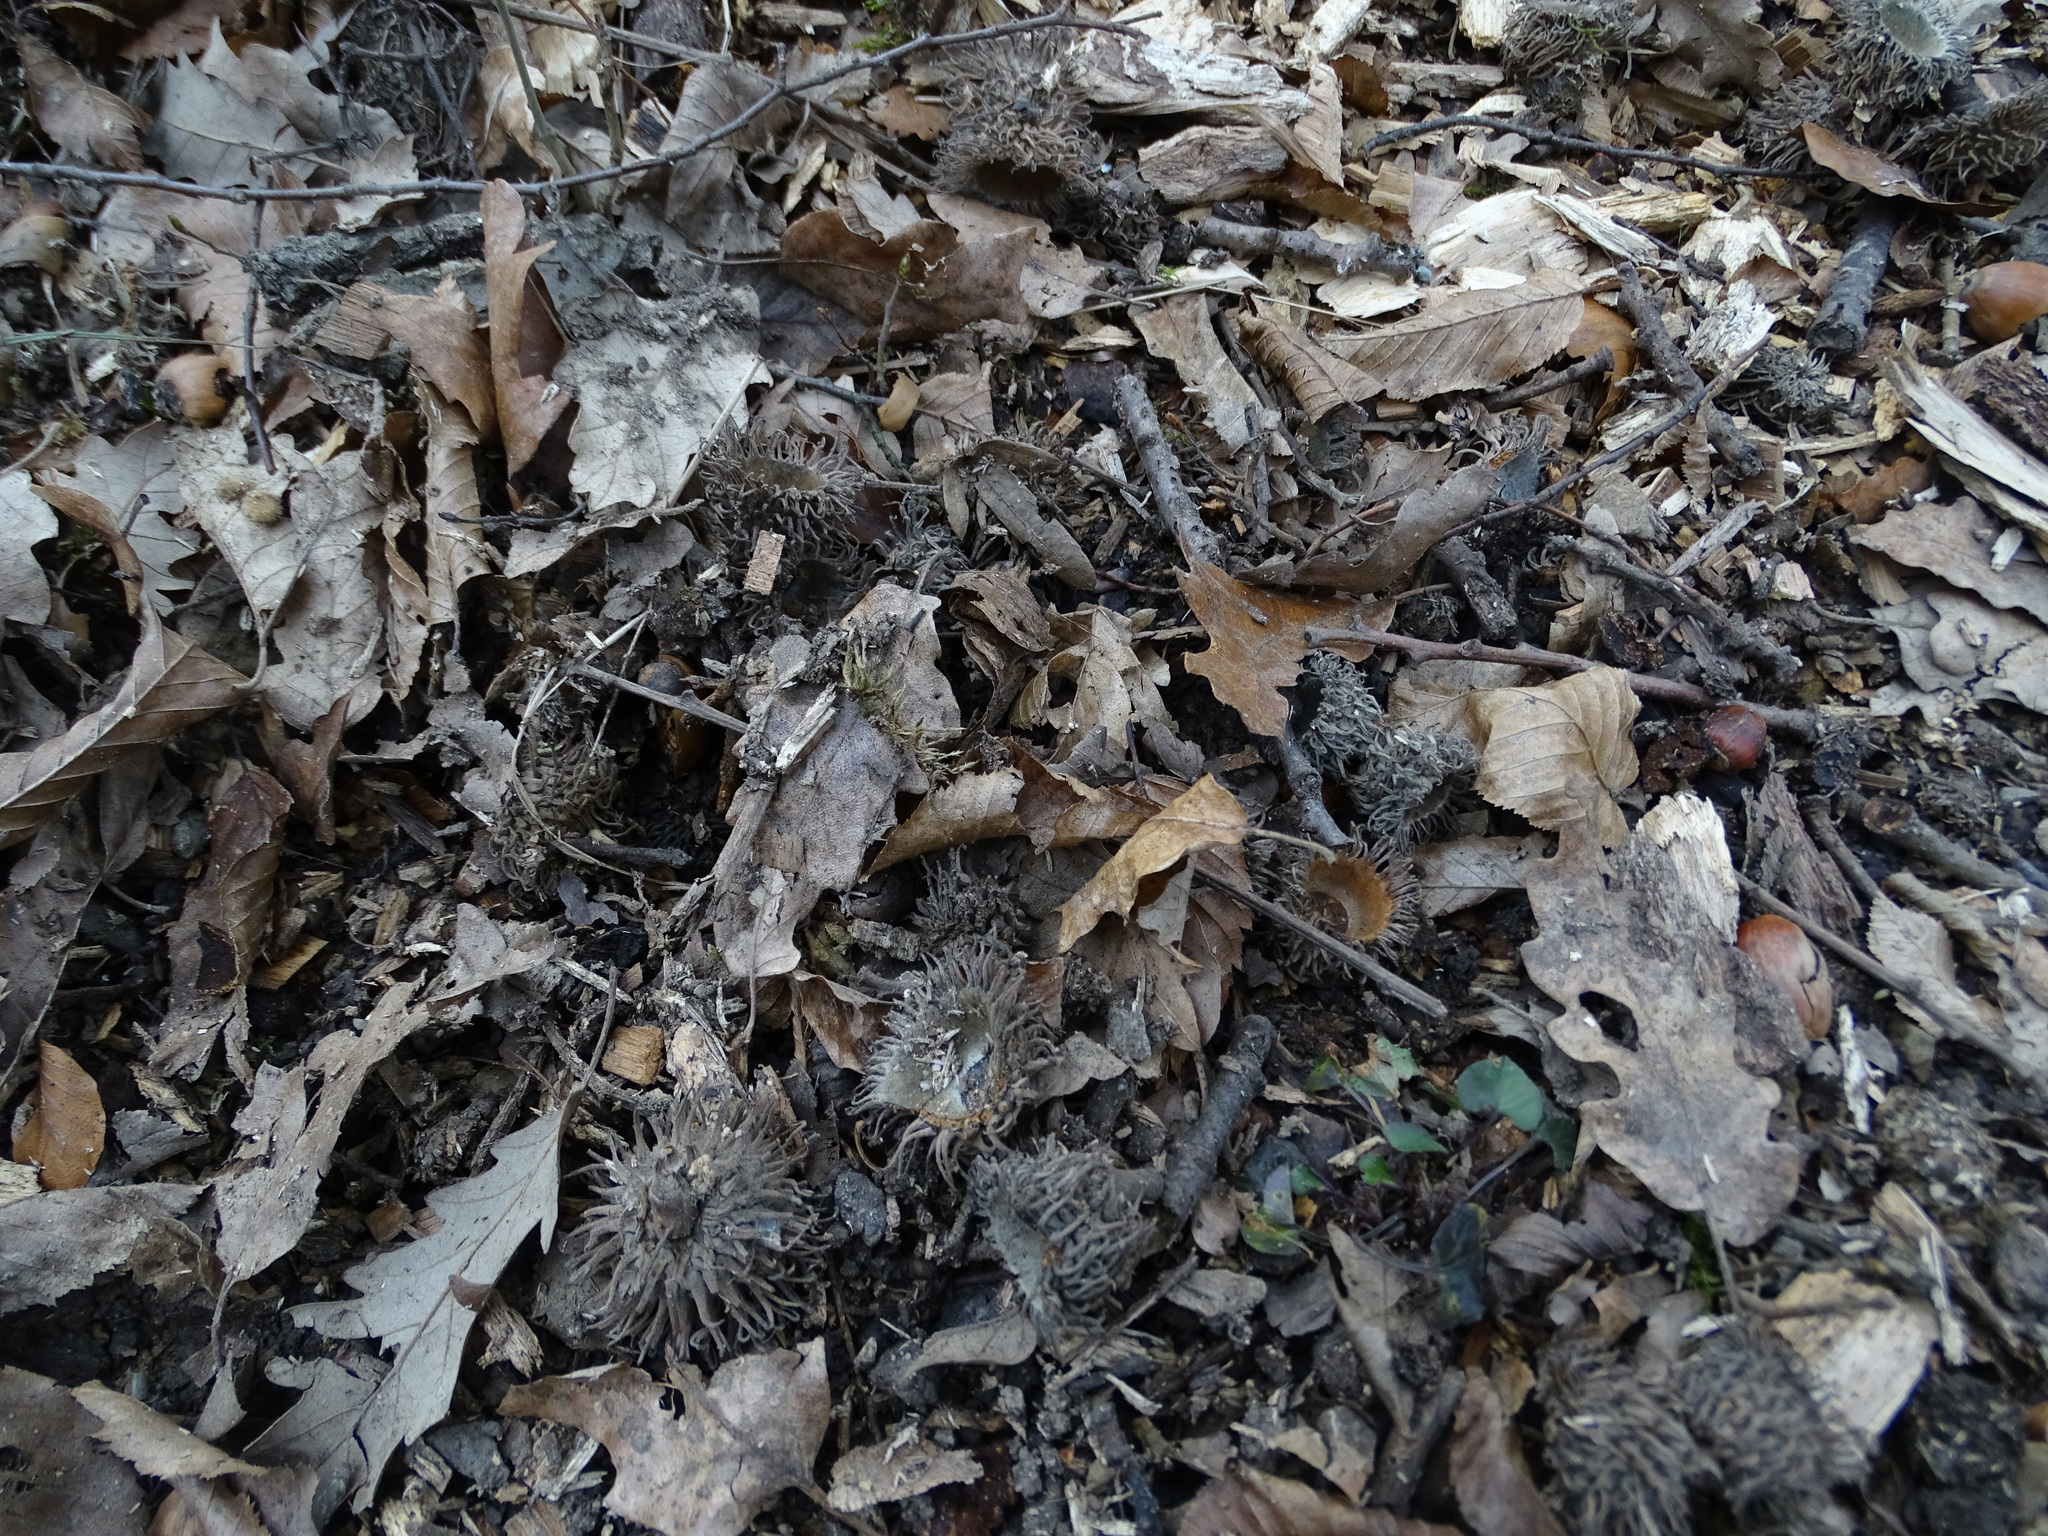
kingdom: Plantae
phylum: Tracheophyta
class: Magnoliopsida
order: Fagales
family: Fagaceae
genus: Quercus
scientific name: Quercus cerris
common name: Turkey oak
